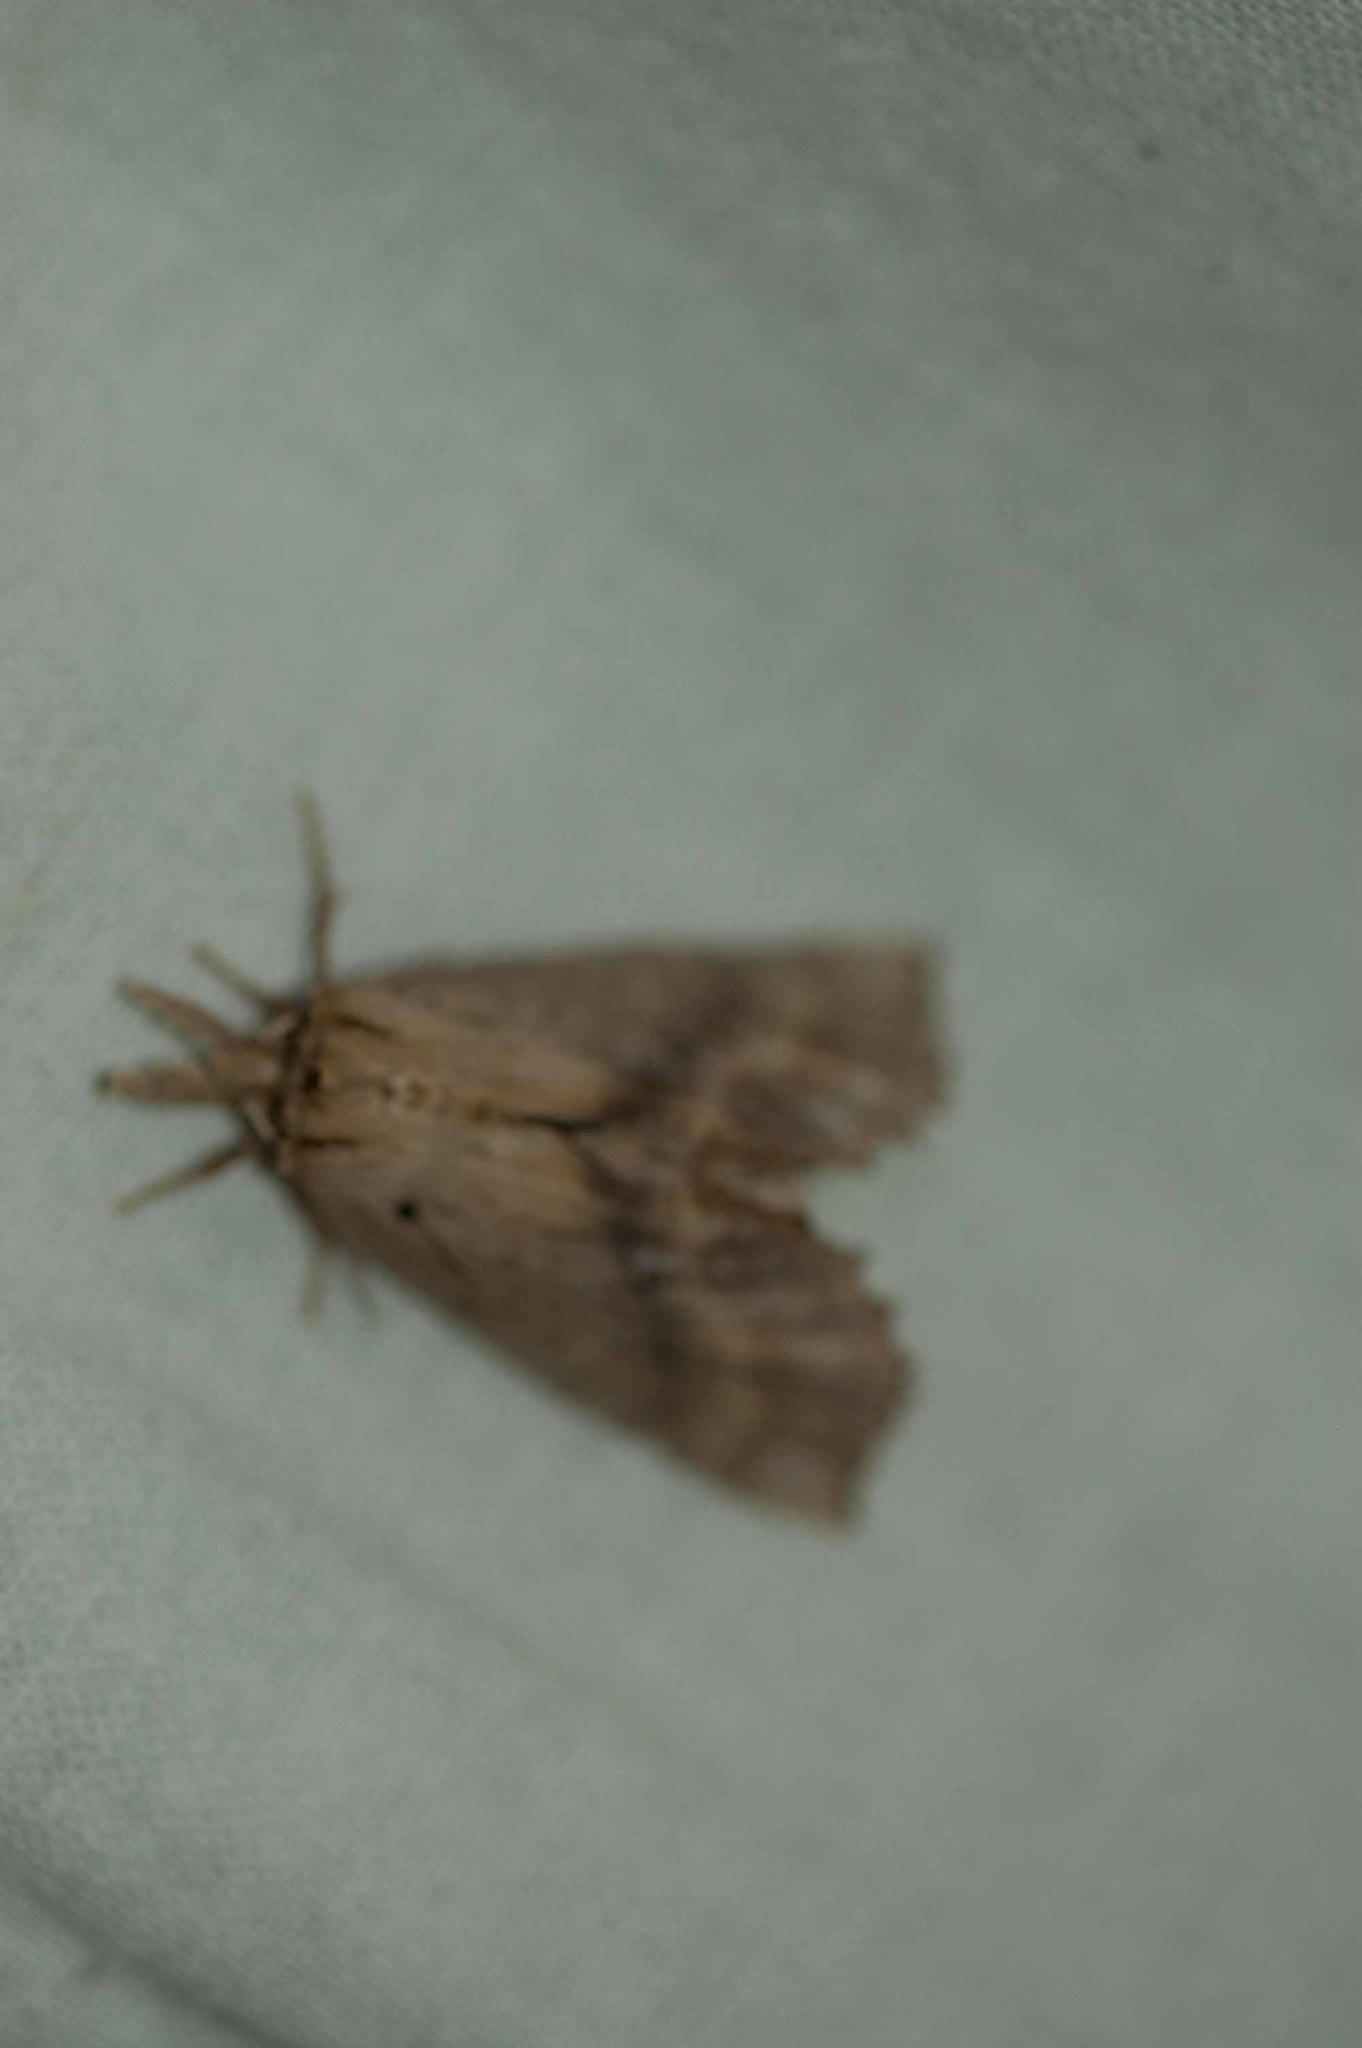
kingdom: Animalia
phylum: Arthropoda
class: Insecta
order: Lepidoptera
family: Notodontidae
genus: Pterostoma
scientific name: Pterostoma palpina
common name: Pale prominent
